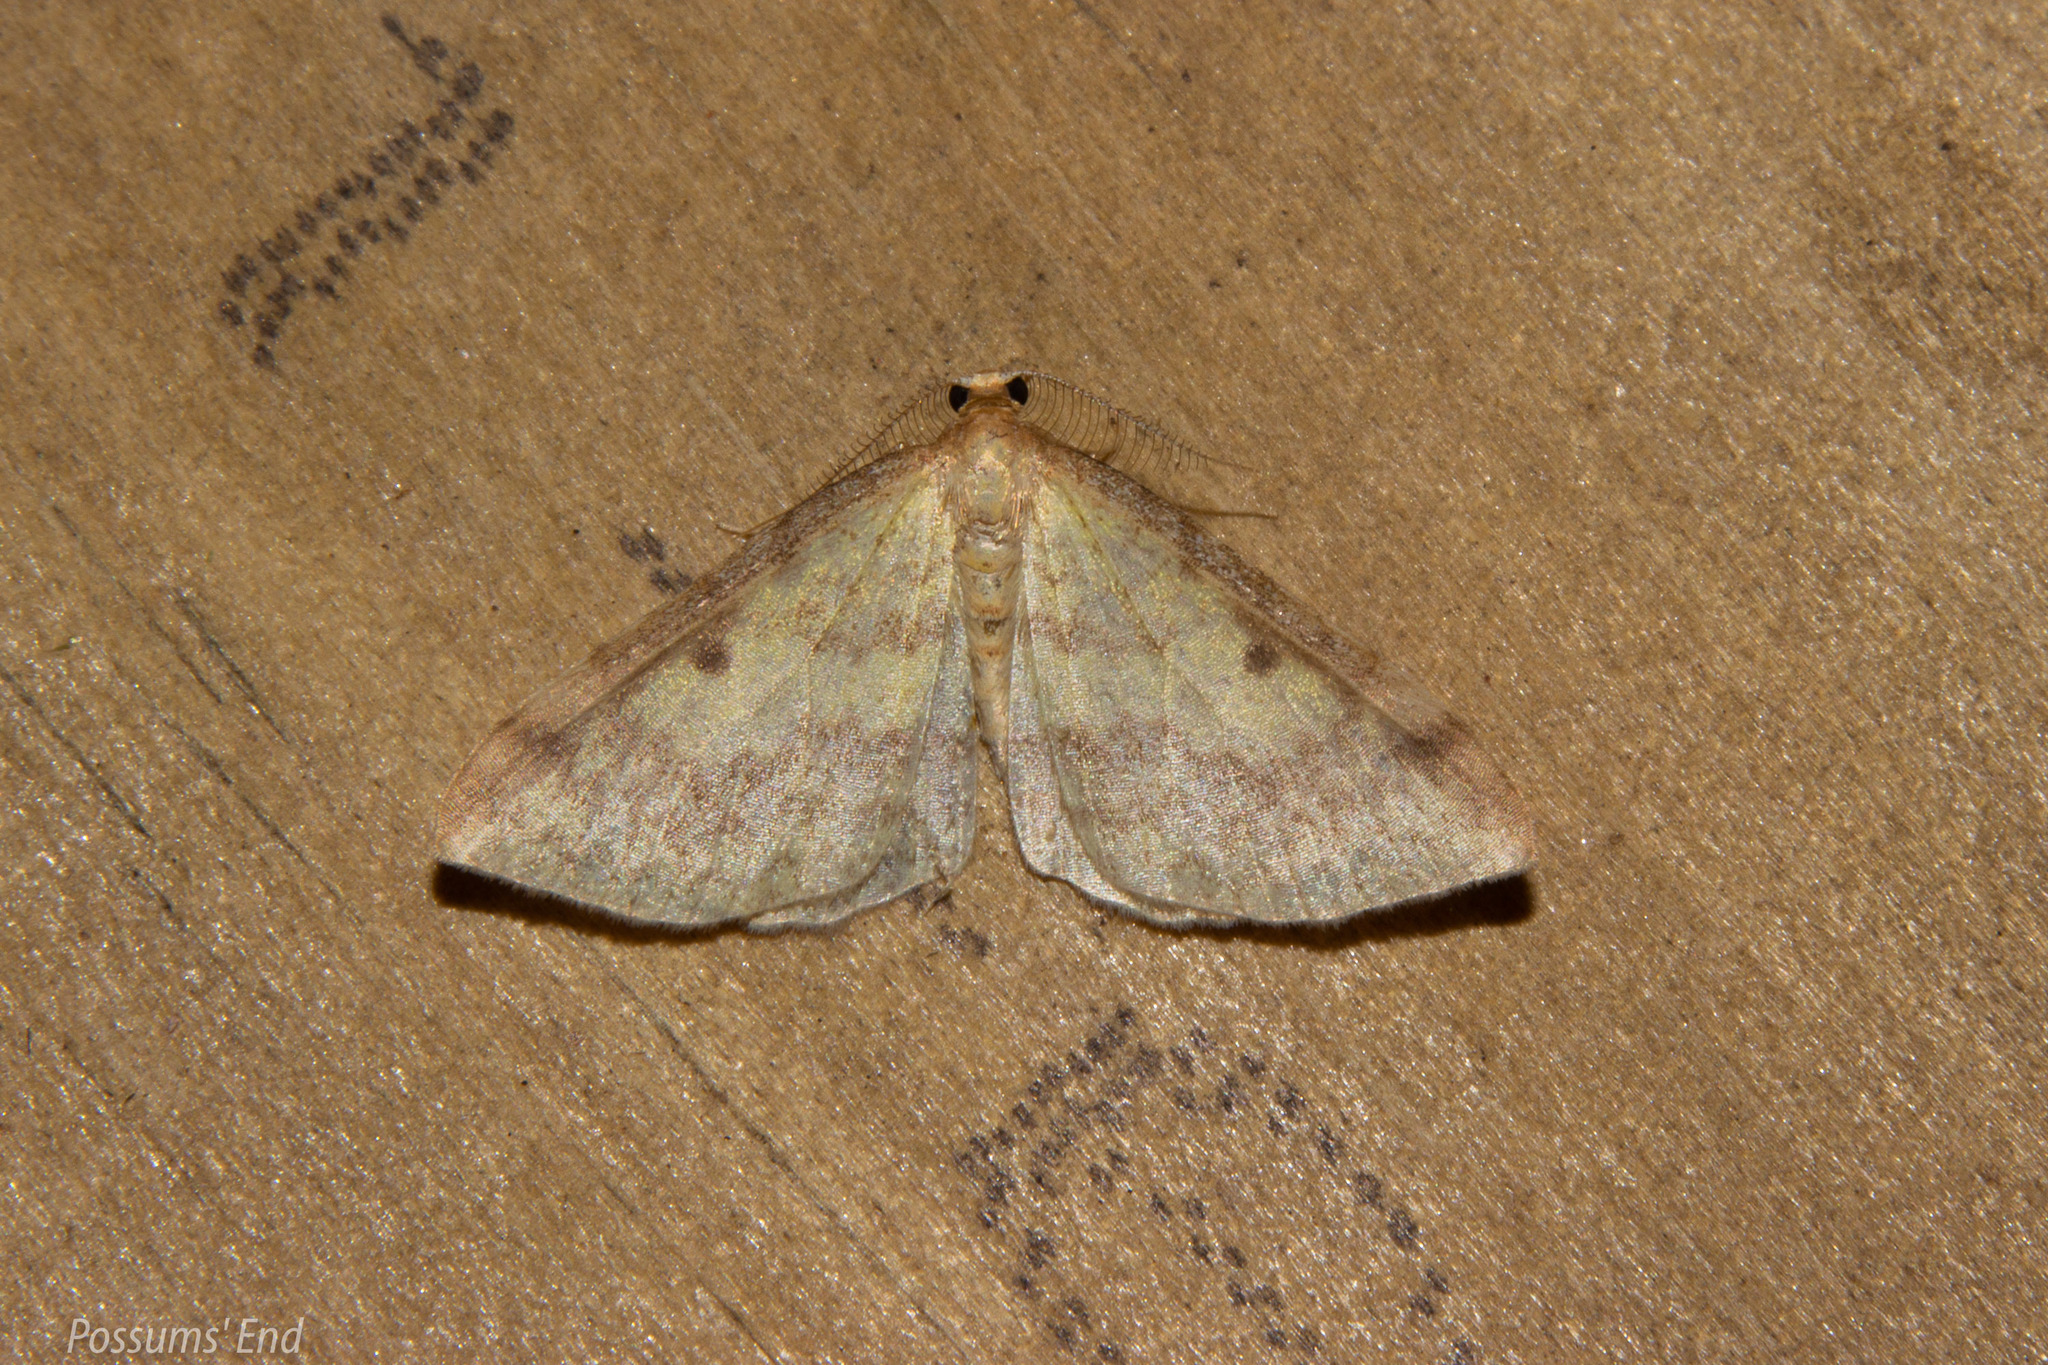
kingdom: Animalia
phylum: Arthropoda
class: Insecta
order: Lepidoptera
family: Geometridae
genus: Epiphryne
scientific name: Epiphryne undosata
